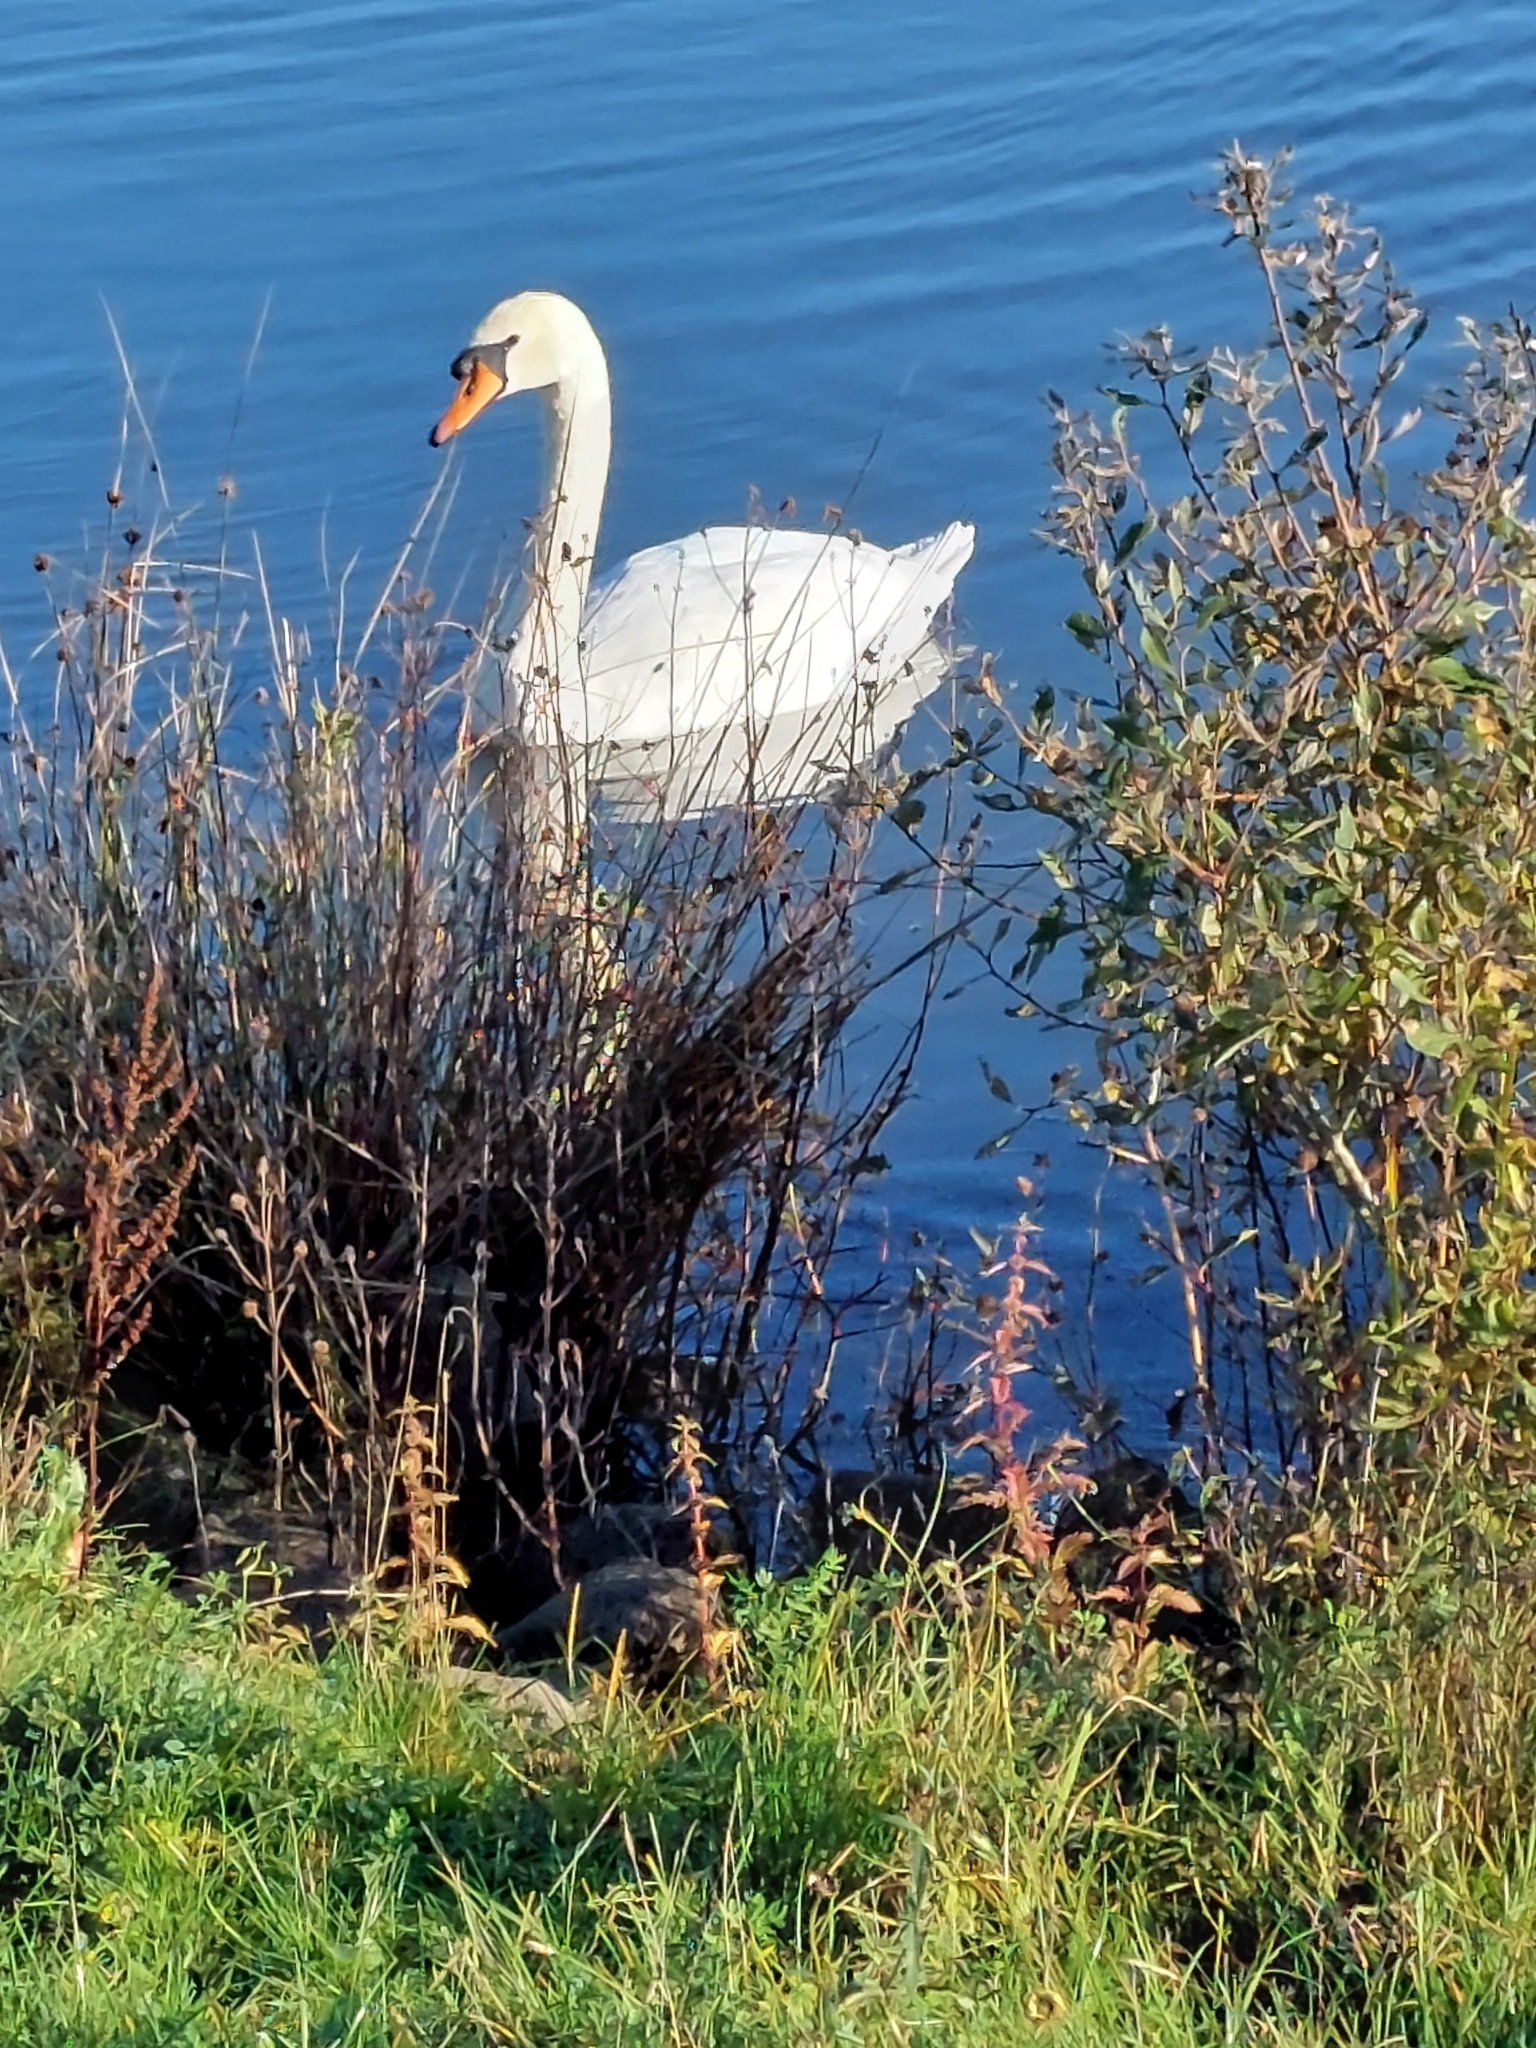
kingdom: Animalia
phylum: Chordata
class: Aves
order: Anseriformes
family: Anatidae
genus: Cygnus
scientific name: Cygnus olor
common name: Mute swan
